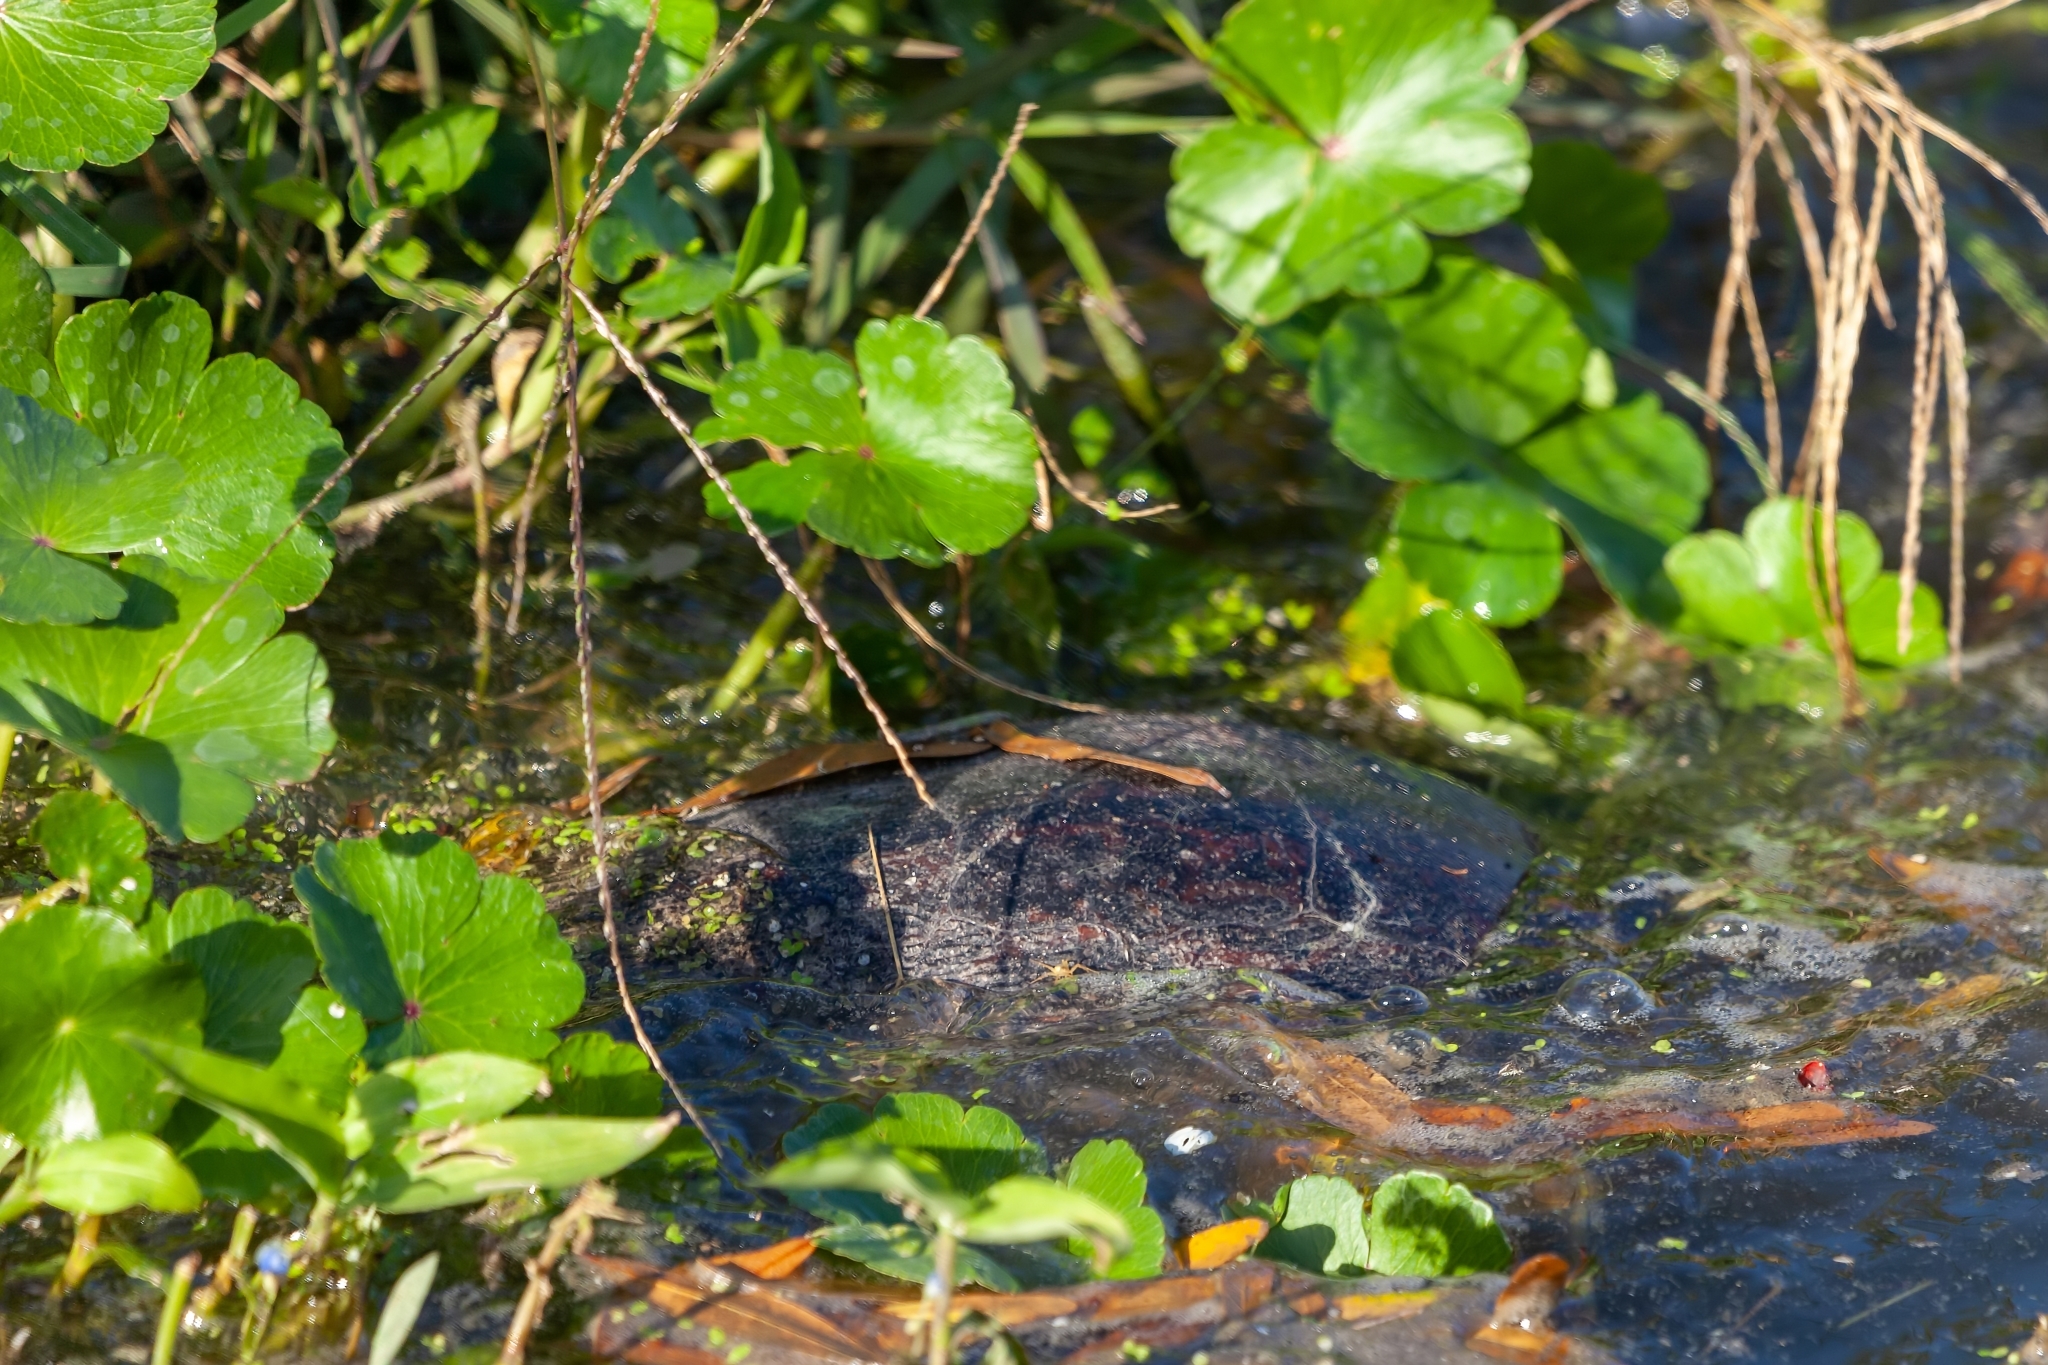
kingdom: Animalia
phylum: Chordata
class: Testudines
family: Emydidae
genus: Pseudemys
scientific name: Pseudemys nelsoni
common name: Florida red-bellied turtle
